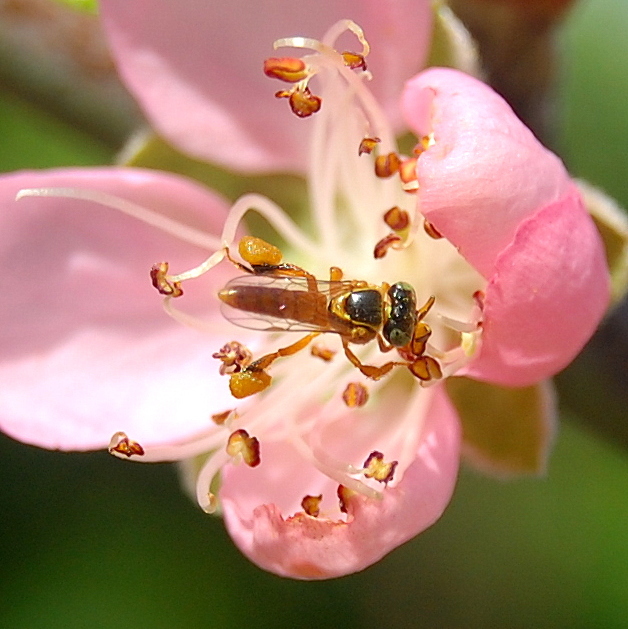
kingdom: Animalia
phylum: Arthropoda
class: Insecta
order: Hymenoptera
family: Apidae
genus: Tetragonisca
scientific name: Tetragonisca fiebrigi
